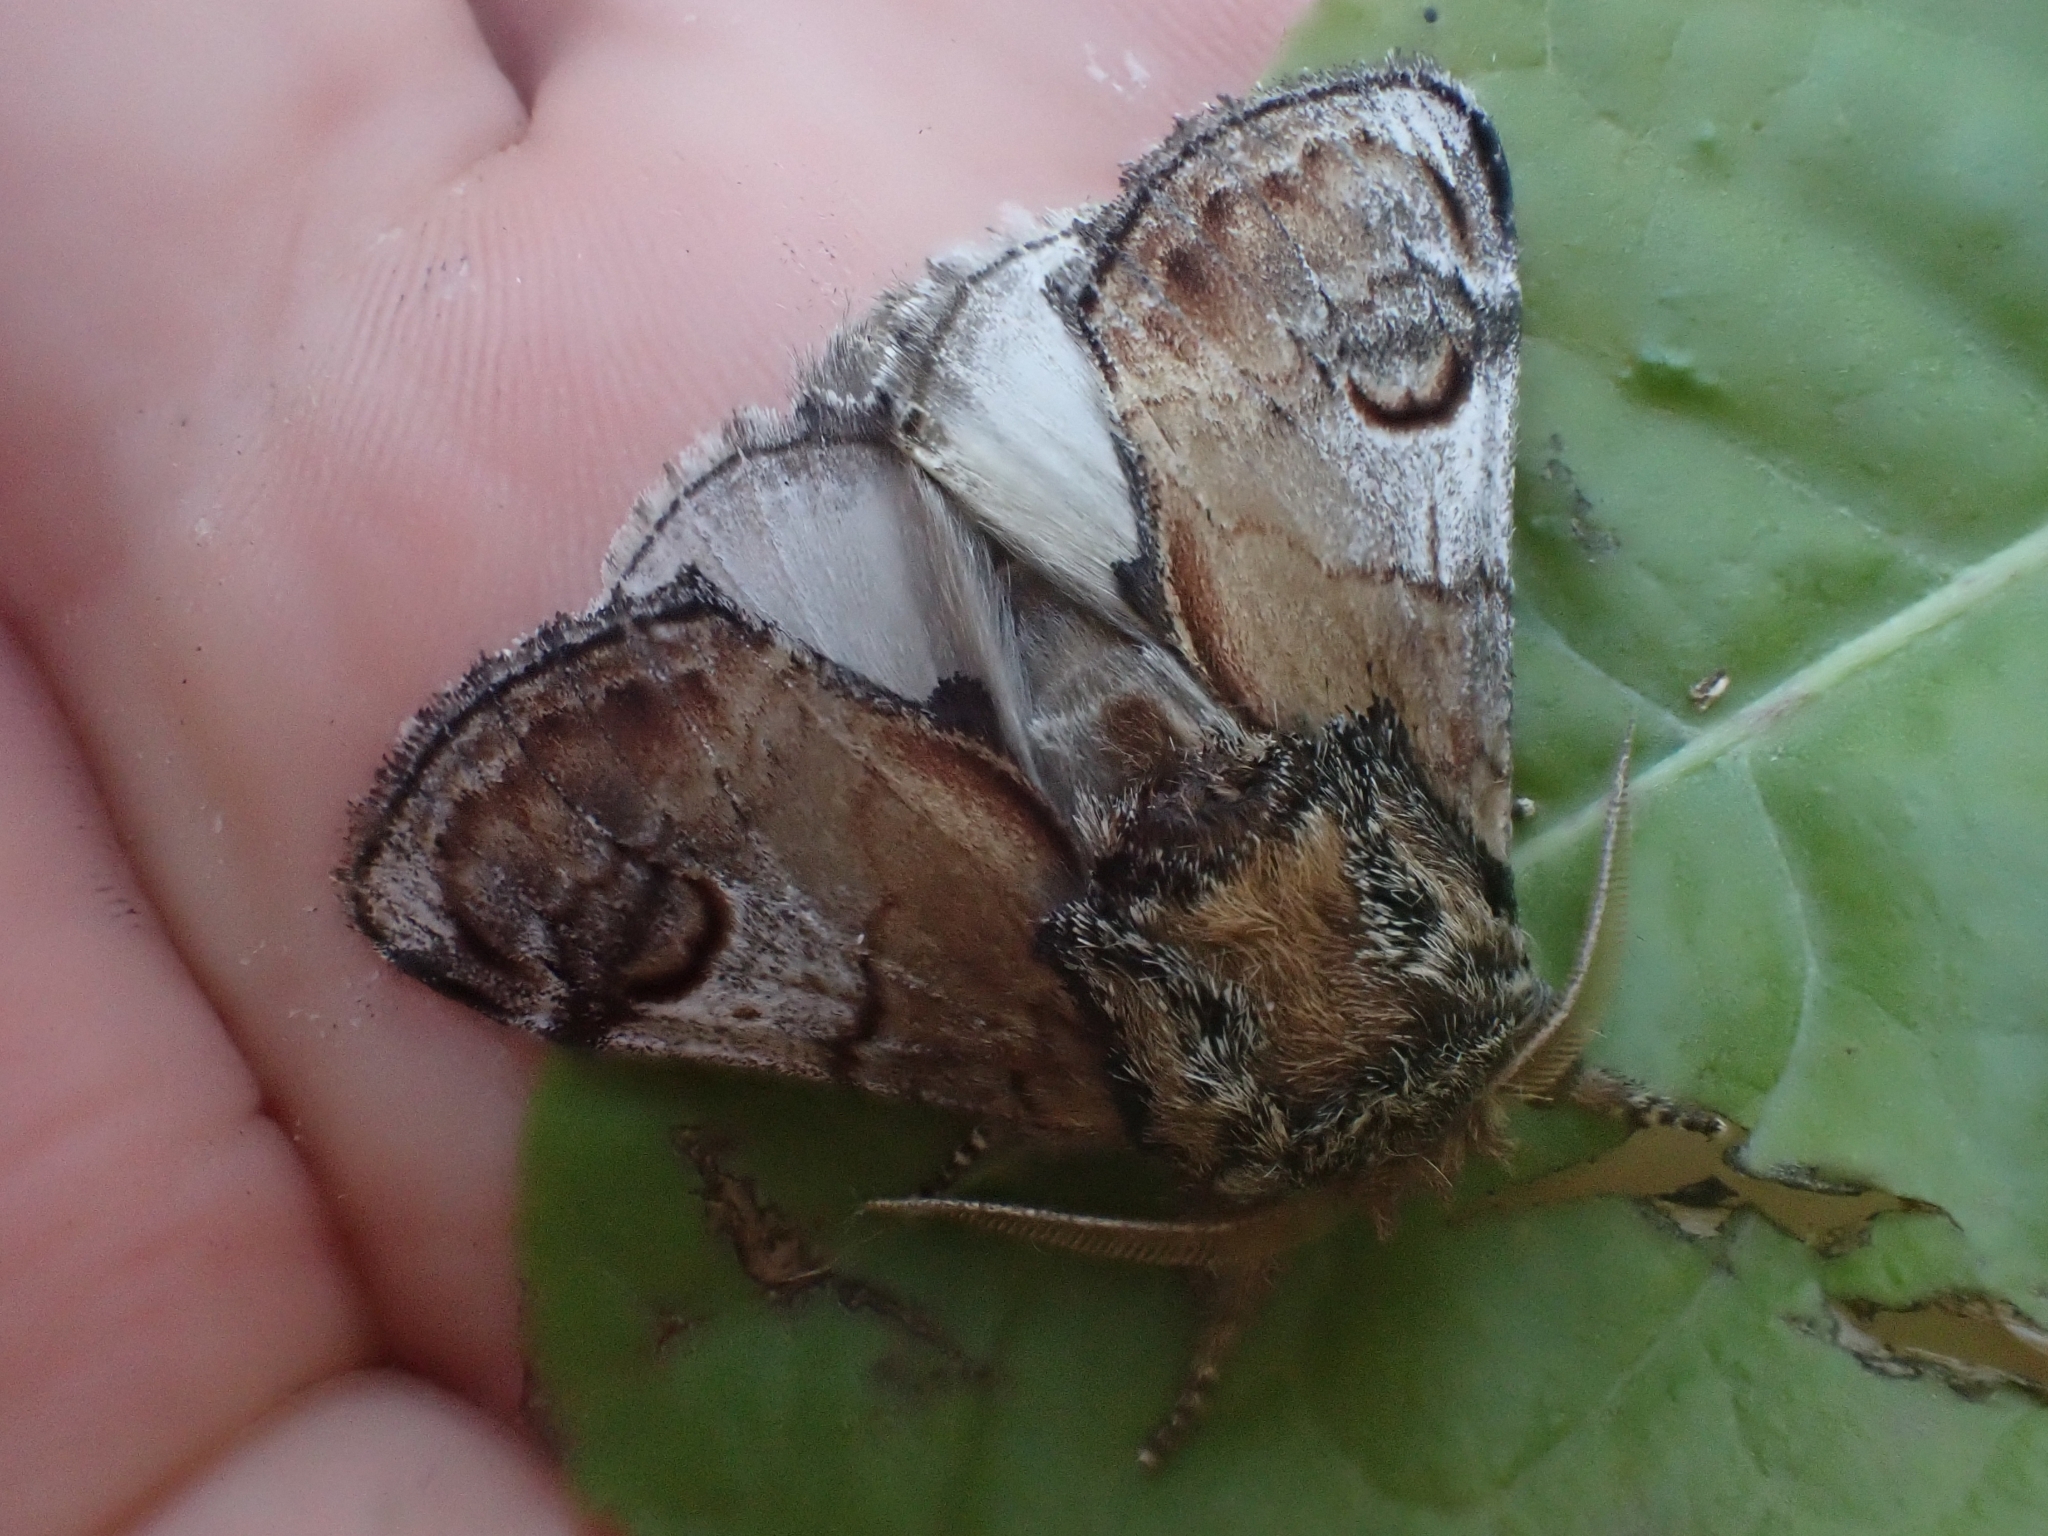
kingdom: Animalia
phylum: Arthropoda
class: Insecta
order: Lepidoptera
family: Notodontidae
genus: Notodonta
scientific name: Notodonta ziczac
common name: Pebble prominent
